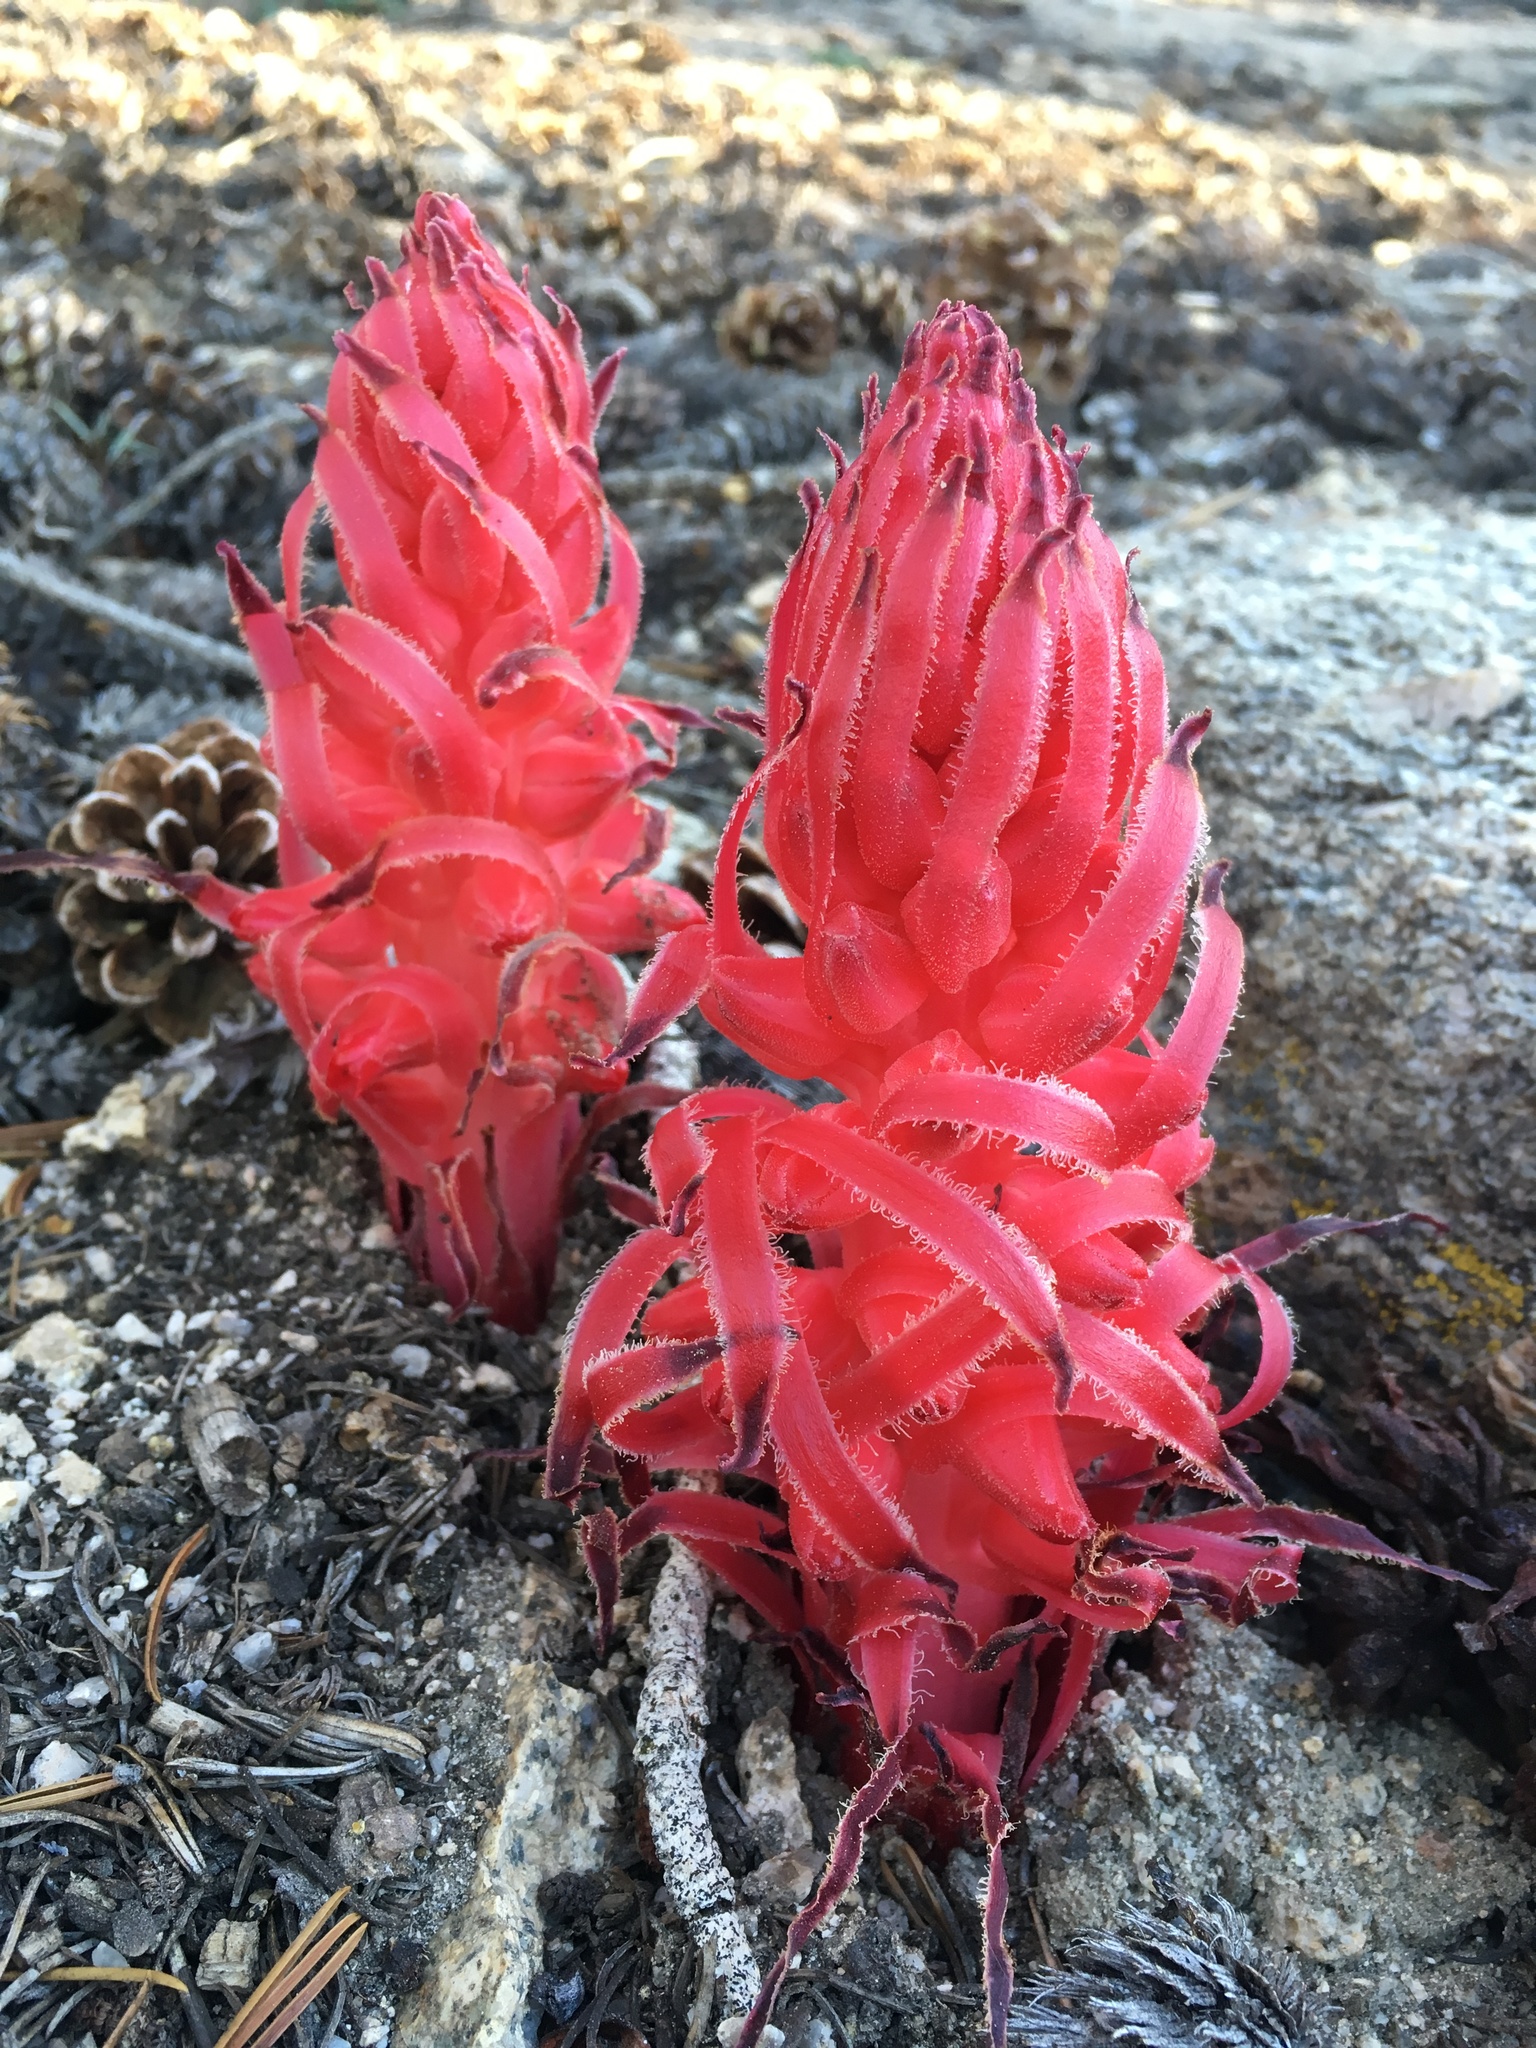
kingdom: Plantae
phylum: Tracheophyta
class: Magnoliopsida
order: Ericales
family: Ericaceae
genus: Sarcodes
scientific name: Sarcodes sanguinea
